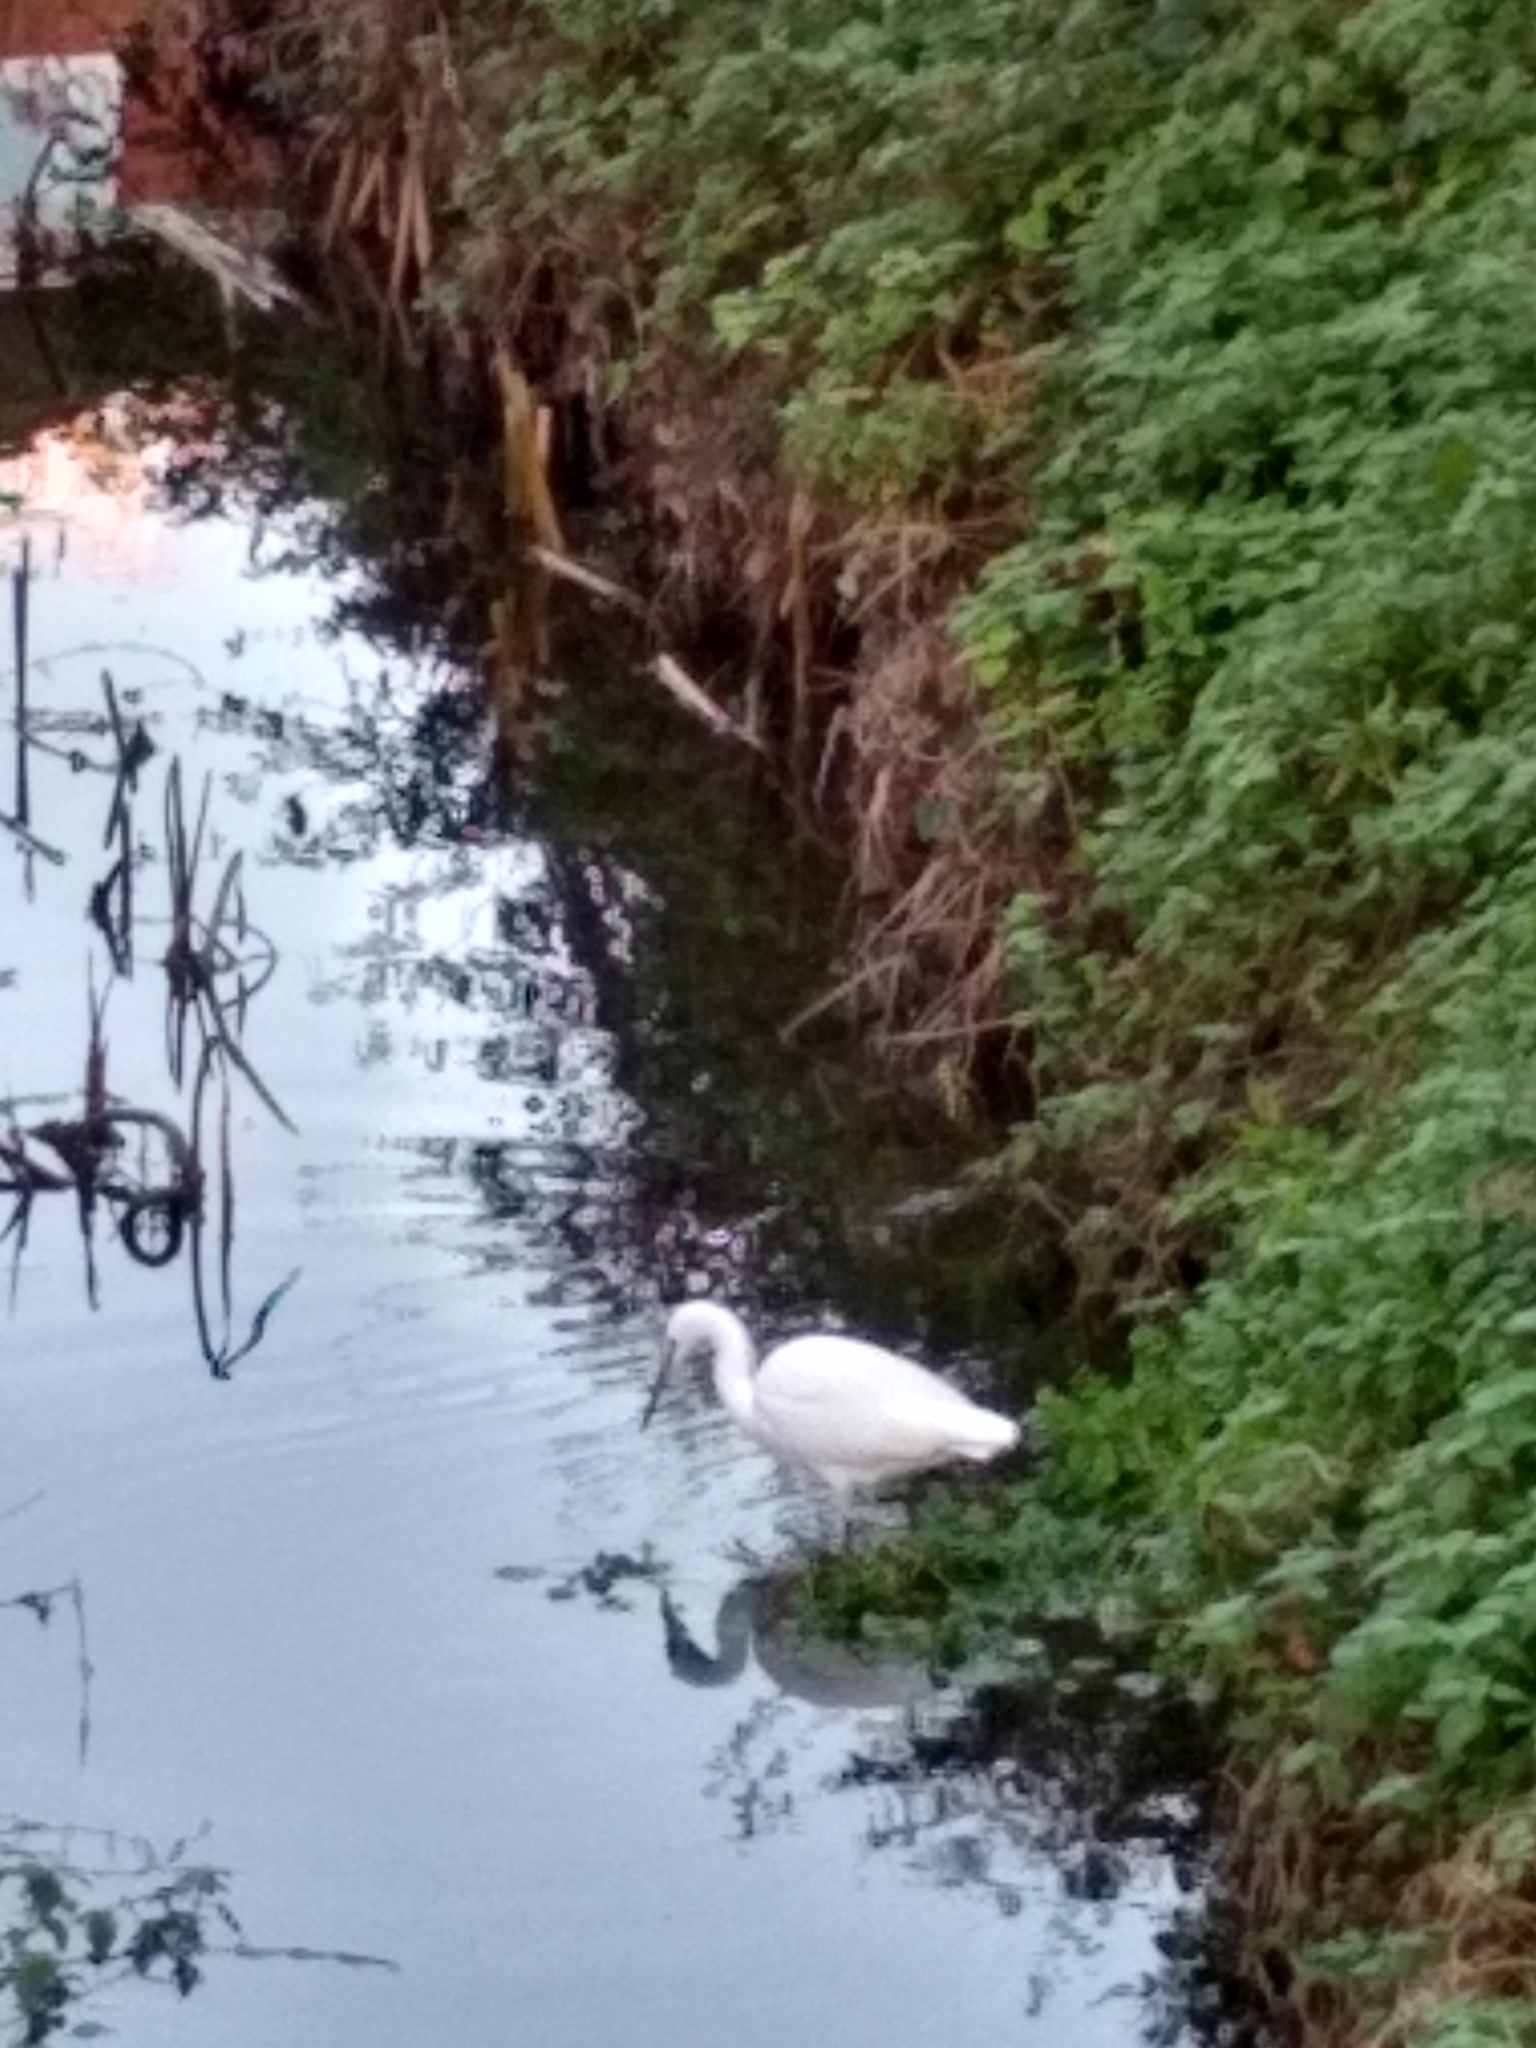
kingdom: Animalia
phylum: Chordata
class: Aves
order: Pelecaniformes
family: Ardeidae
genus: Egretta
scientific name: Egretta garzetta
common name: Little egret
